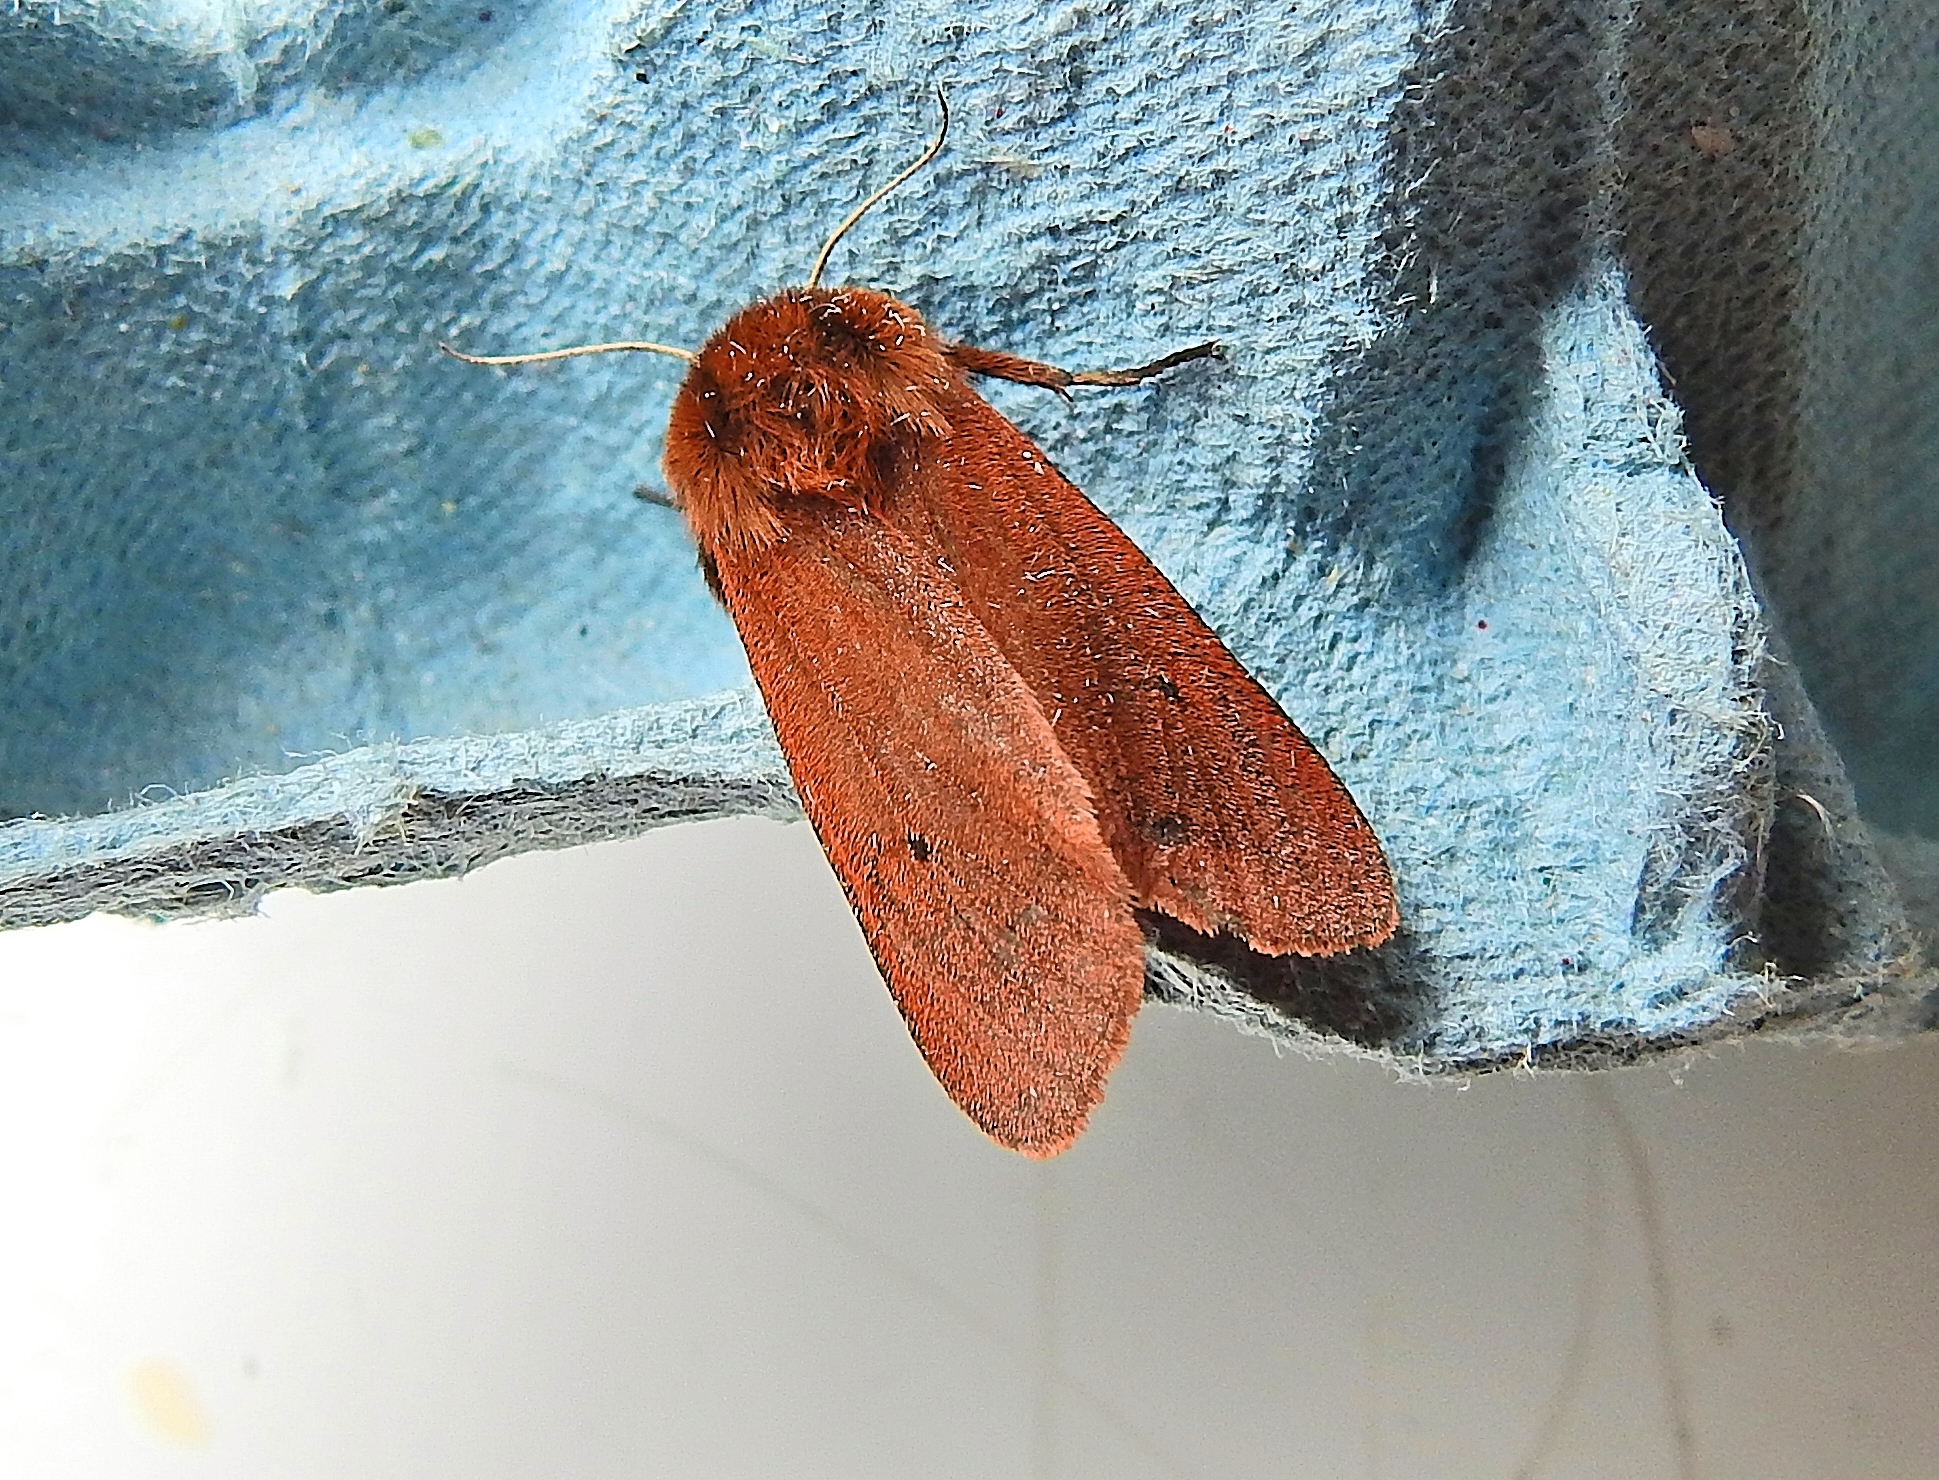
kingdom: Animalia
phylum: Arthropoda
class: Insecta
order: Lepidoptera
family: Erebidae
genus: Phragmatobia
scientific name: Phragmatobia fuliginosa
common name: Ruby tiger
